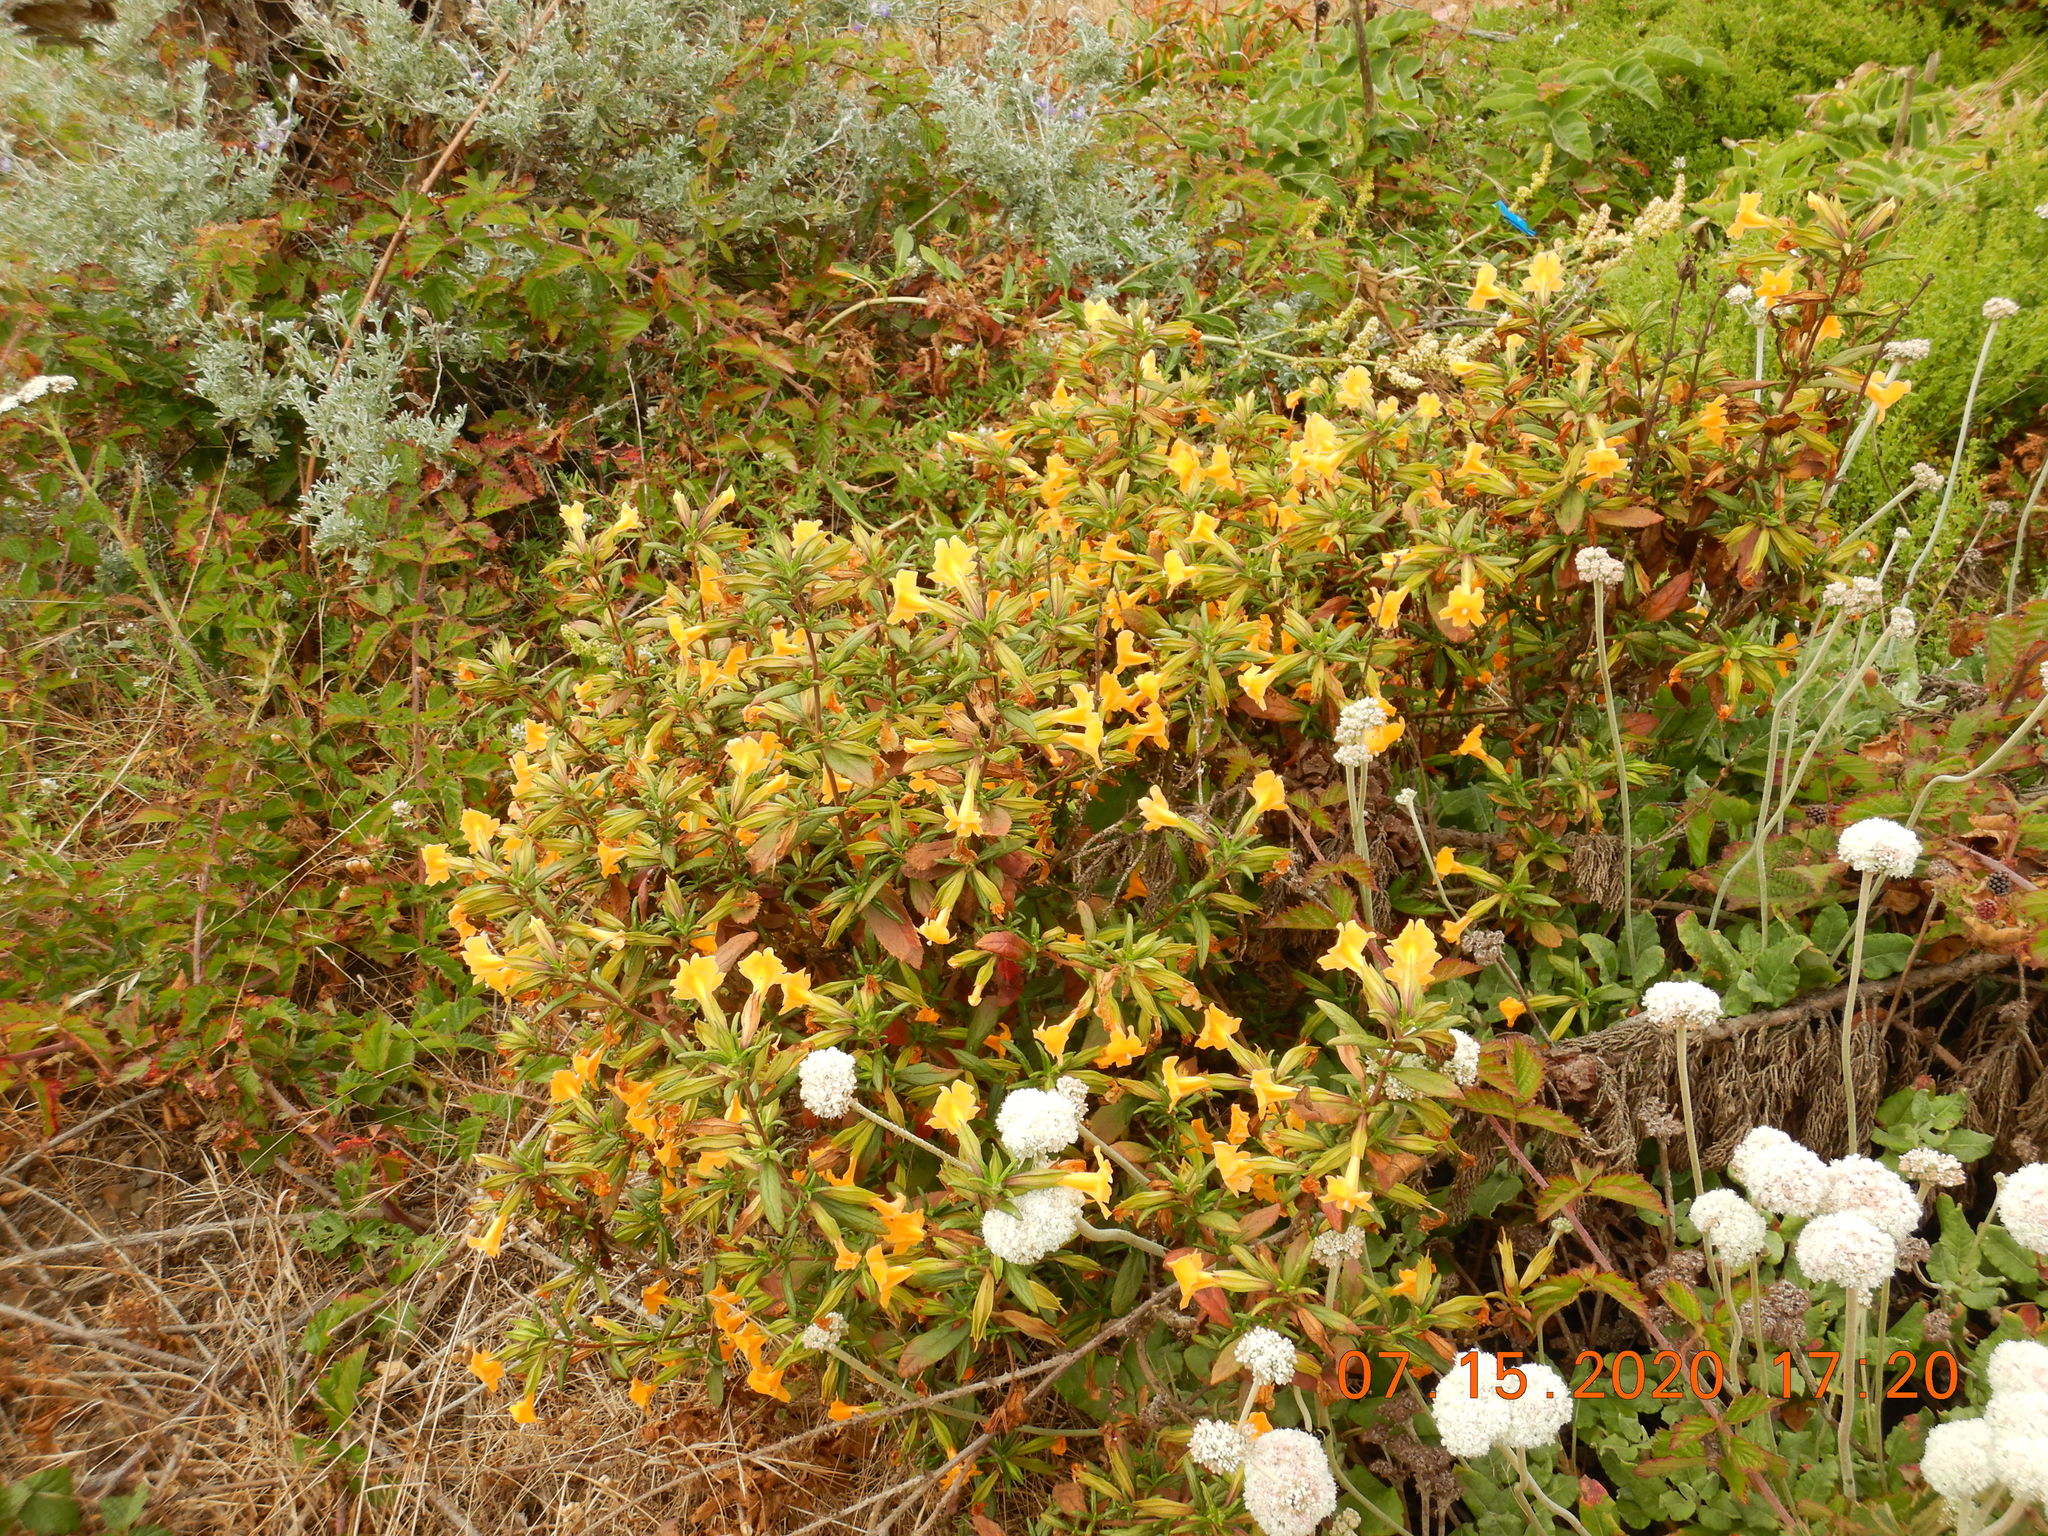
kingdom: Plantae
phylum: Tracheophyta
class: Magnoliopsida
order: Lamiales
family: Phrymaceae
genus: Diplacus
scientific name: Diplacus aurantiacus
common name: Bush monkey-flower
